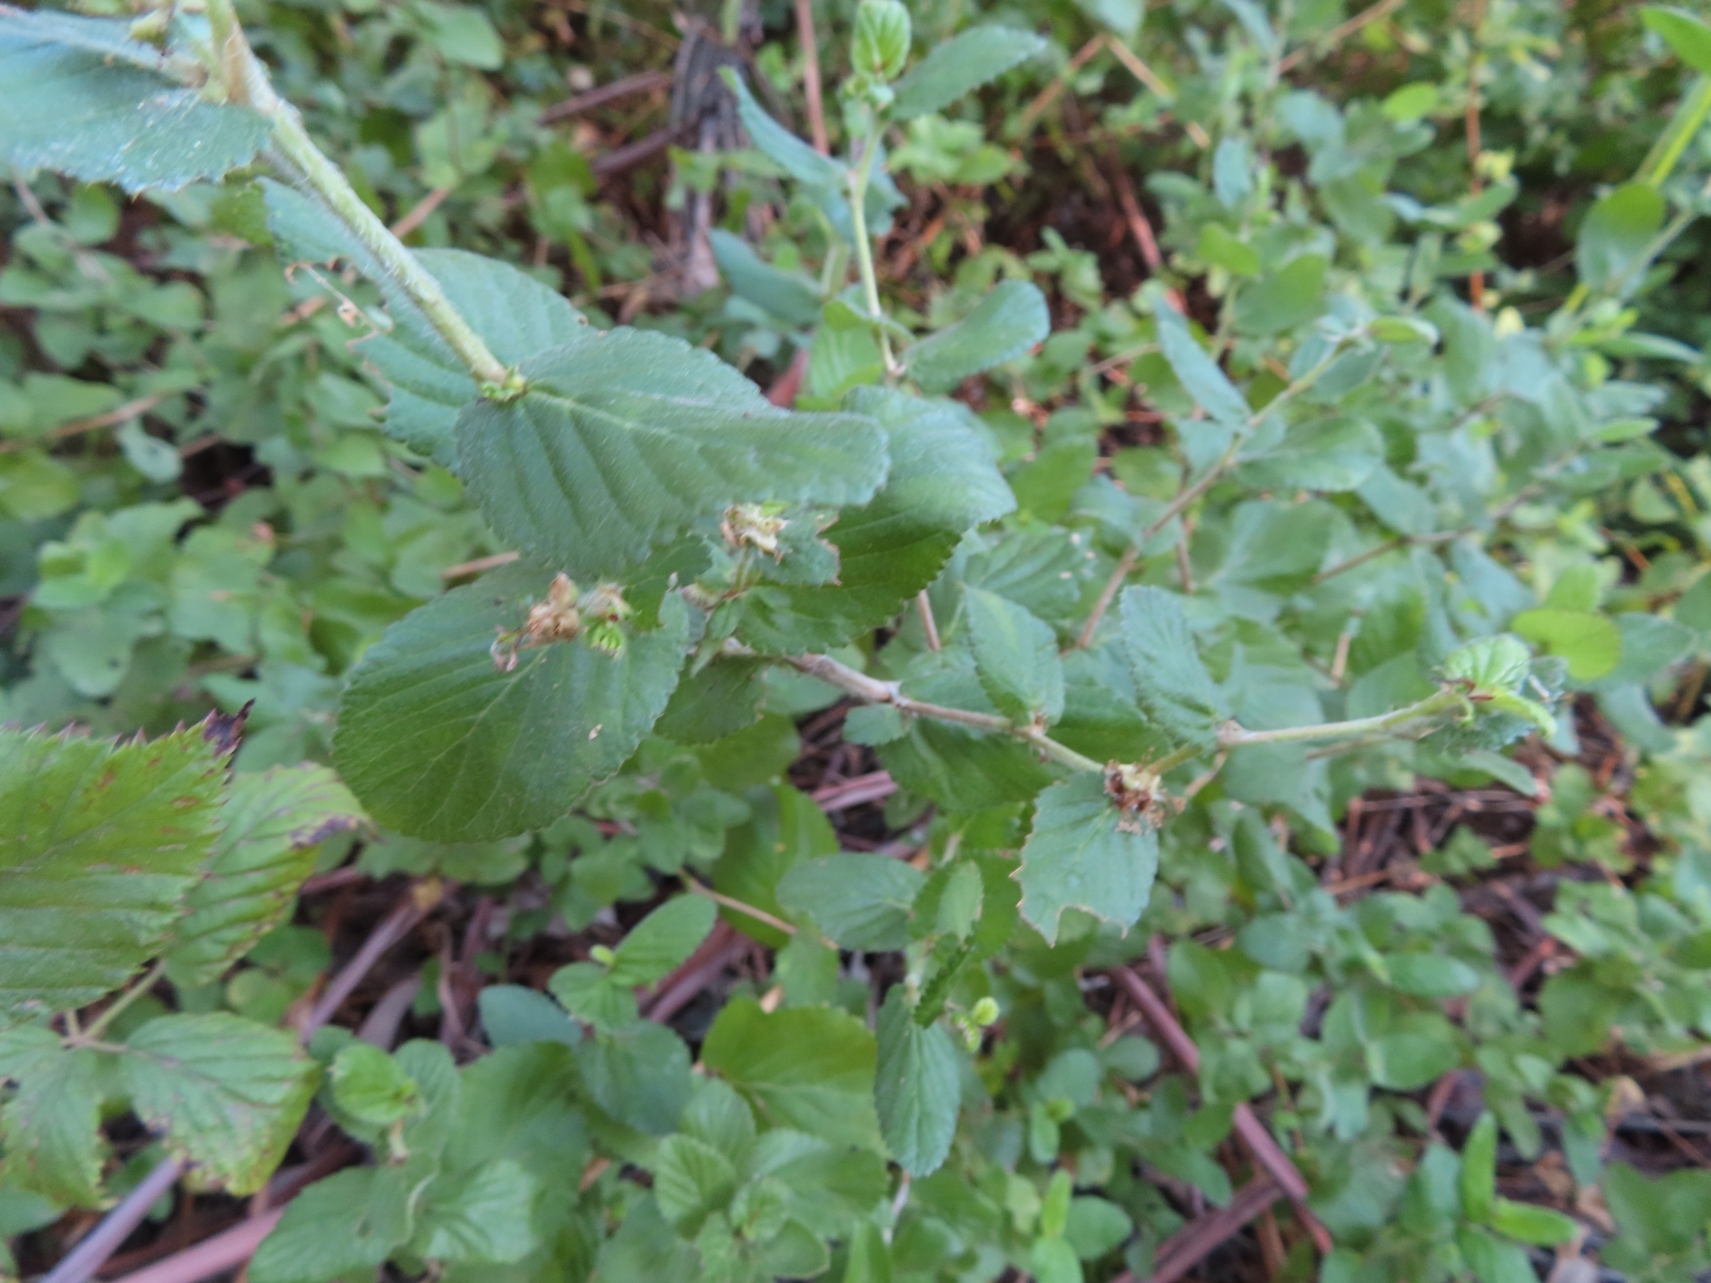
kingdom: Plantae
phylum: Tracheophyta
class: Magnoliopsida
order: Rosales
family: Rosaceae
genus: Cliffortia
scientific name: Cliffortia odorata
